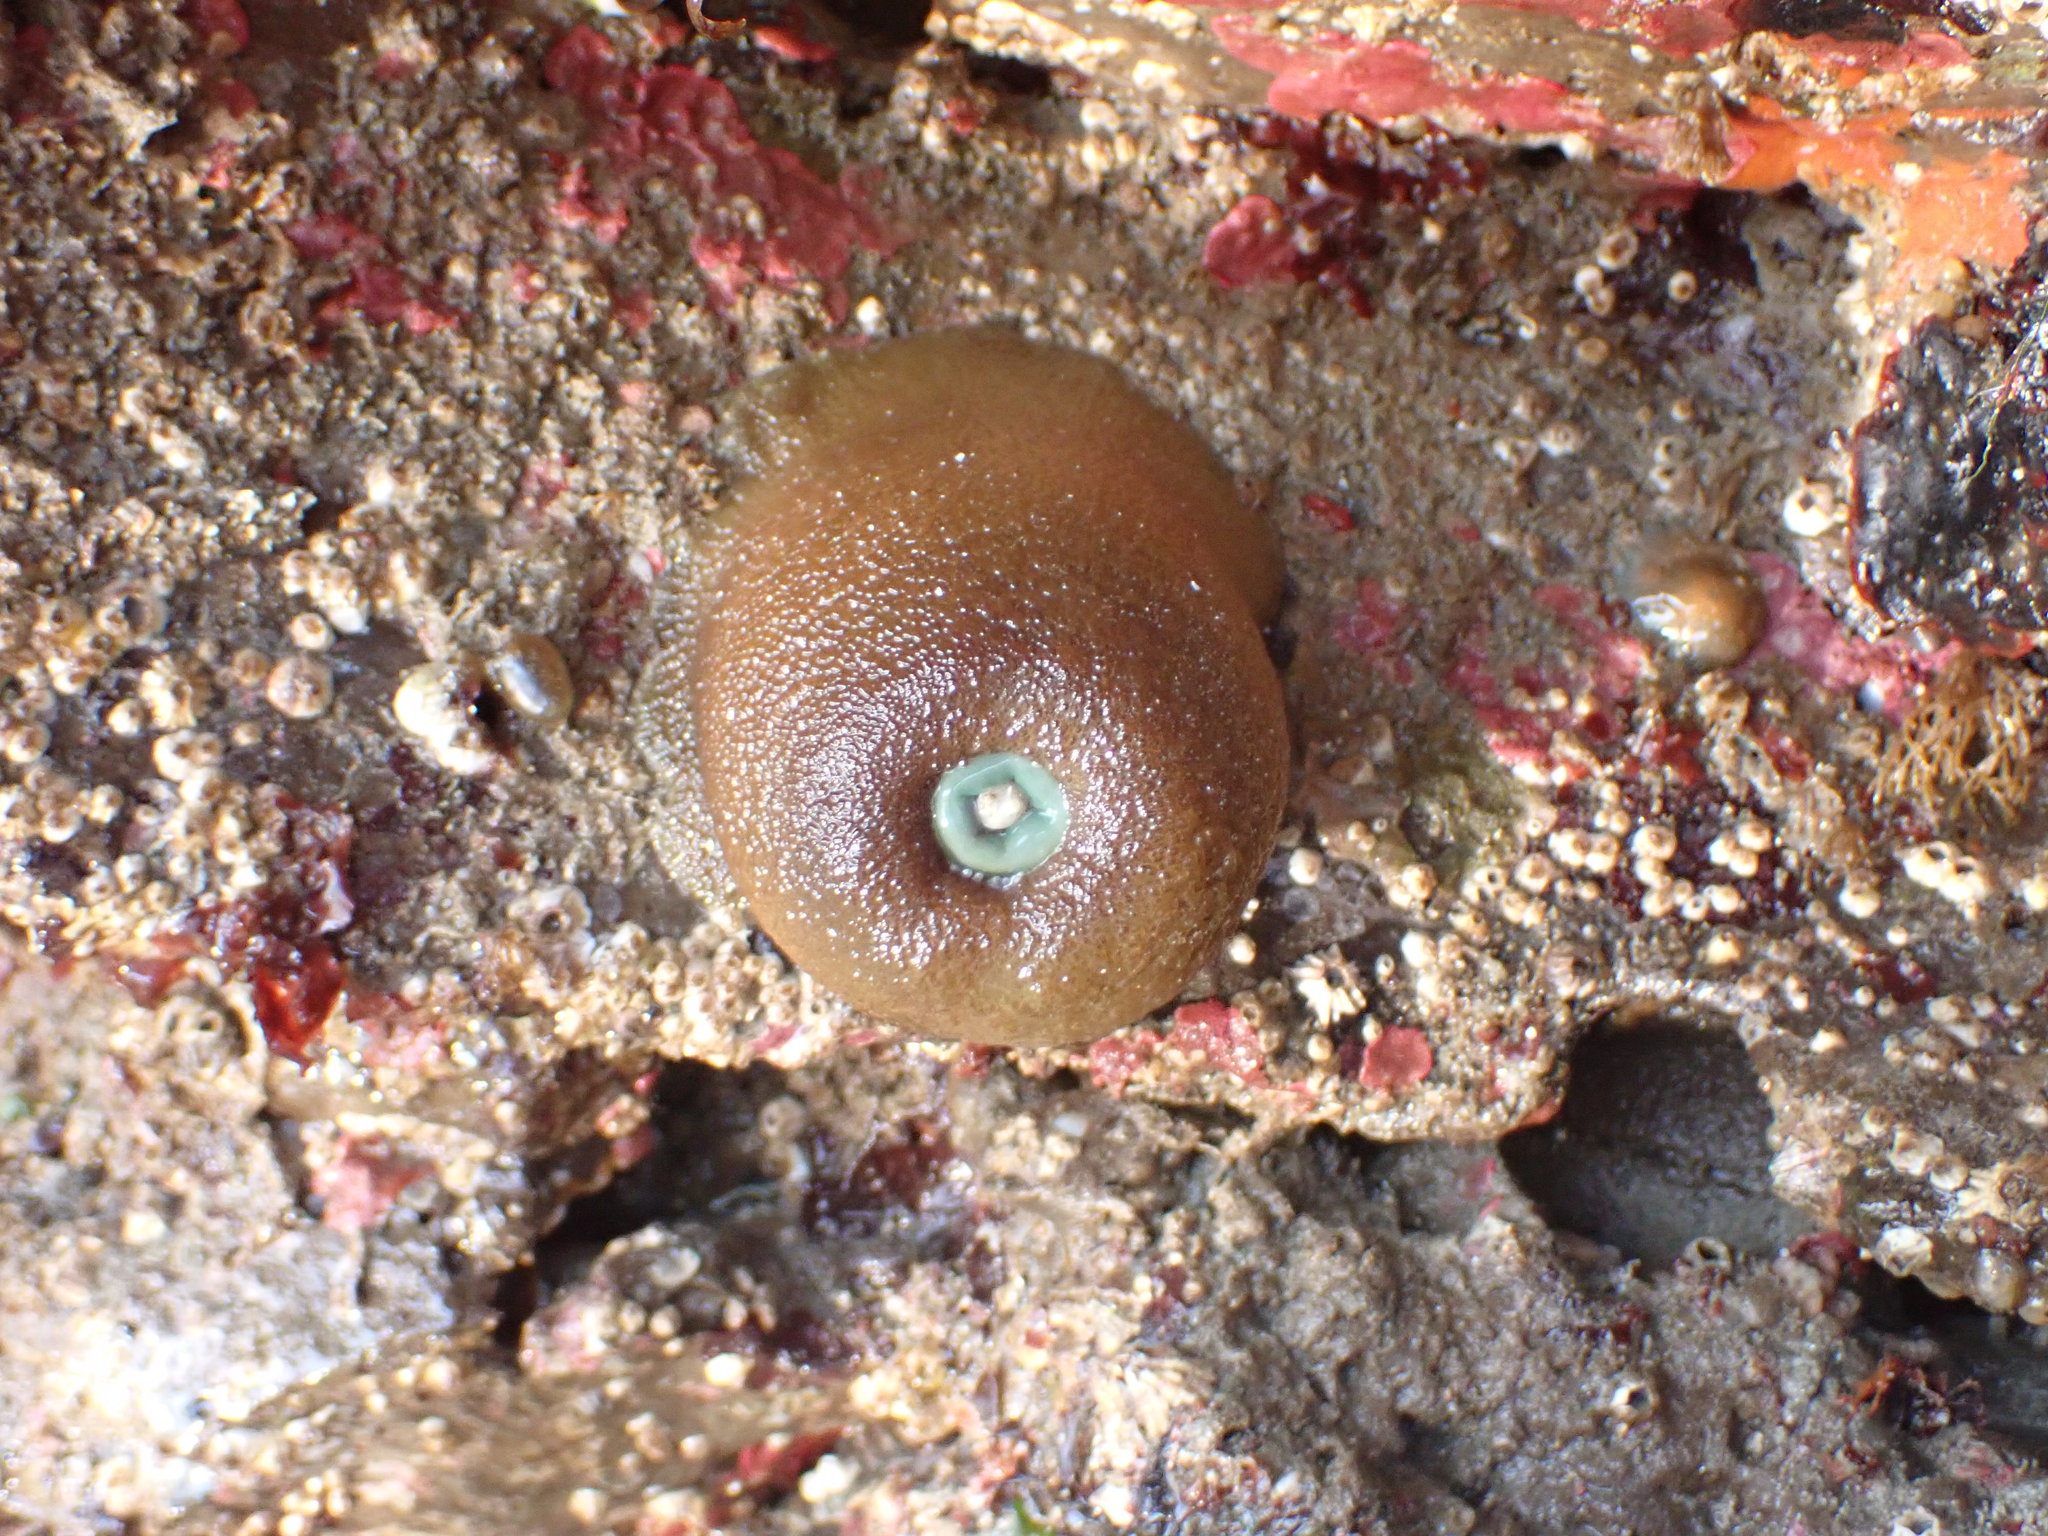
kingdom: Animalia
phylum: Cnidaria
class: Anthozoa
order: Actiniaria
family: Actiniidae
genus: Anthopleura
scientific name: Anthopleura xanthogrammica
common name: Giant green anemone
